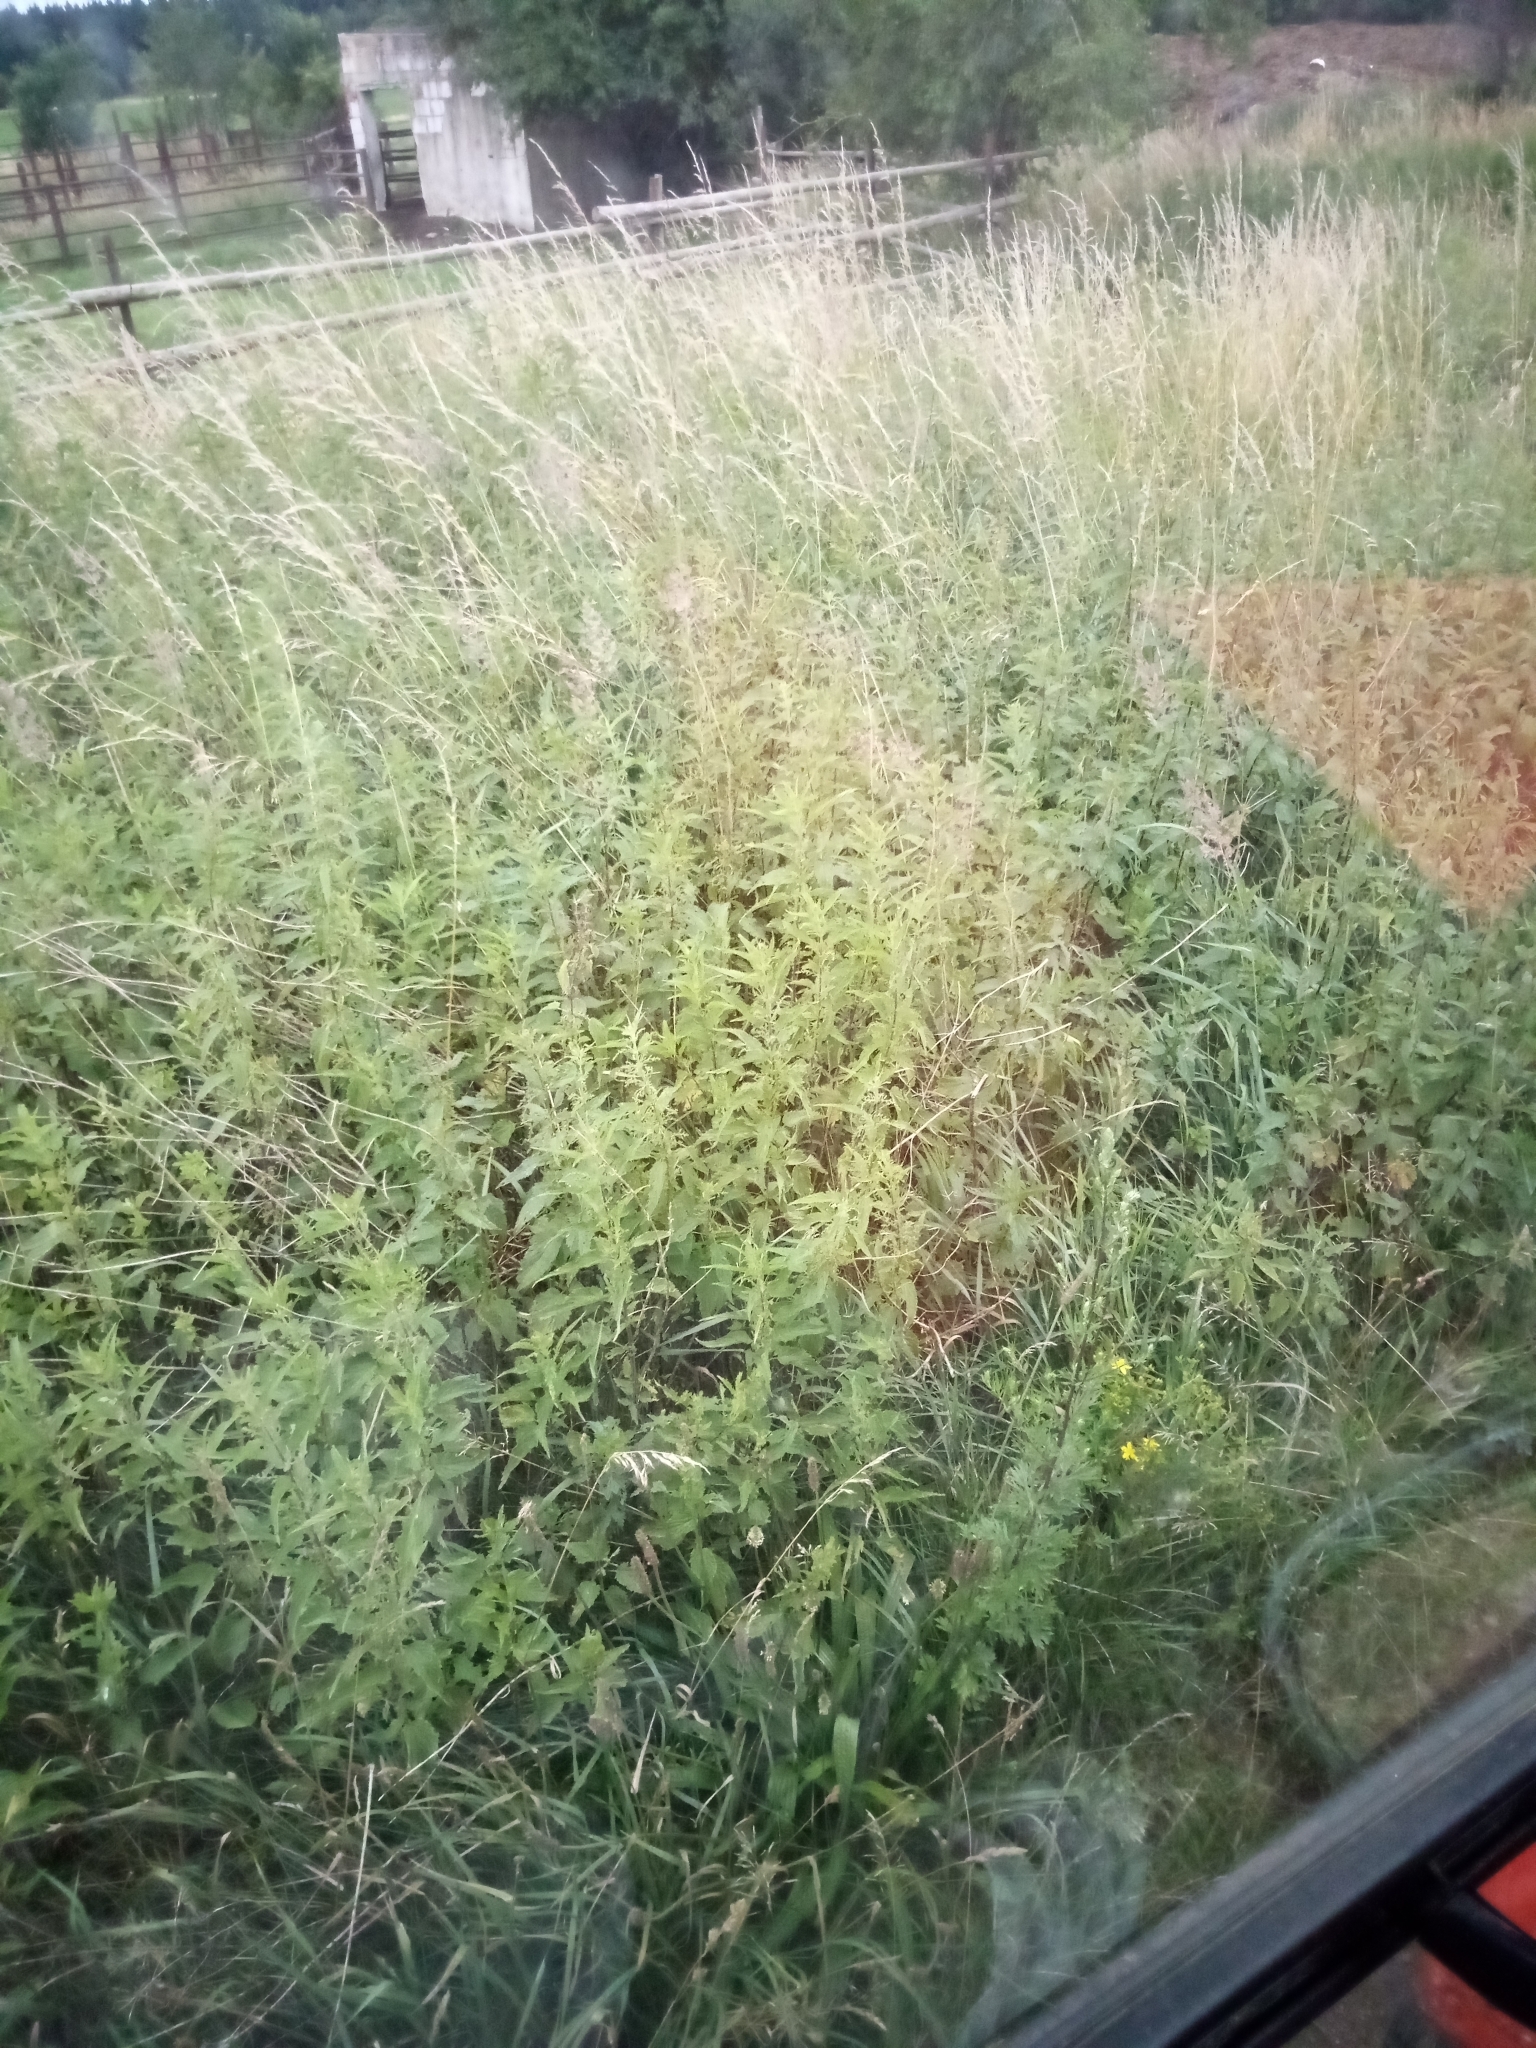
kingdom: Plantae
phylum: Tracheophyta
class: Magnoliopsida
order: Rosales
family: Urticaceae
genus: Urtica
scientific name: Urtica dioica
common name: Common nettle
